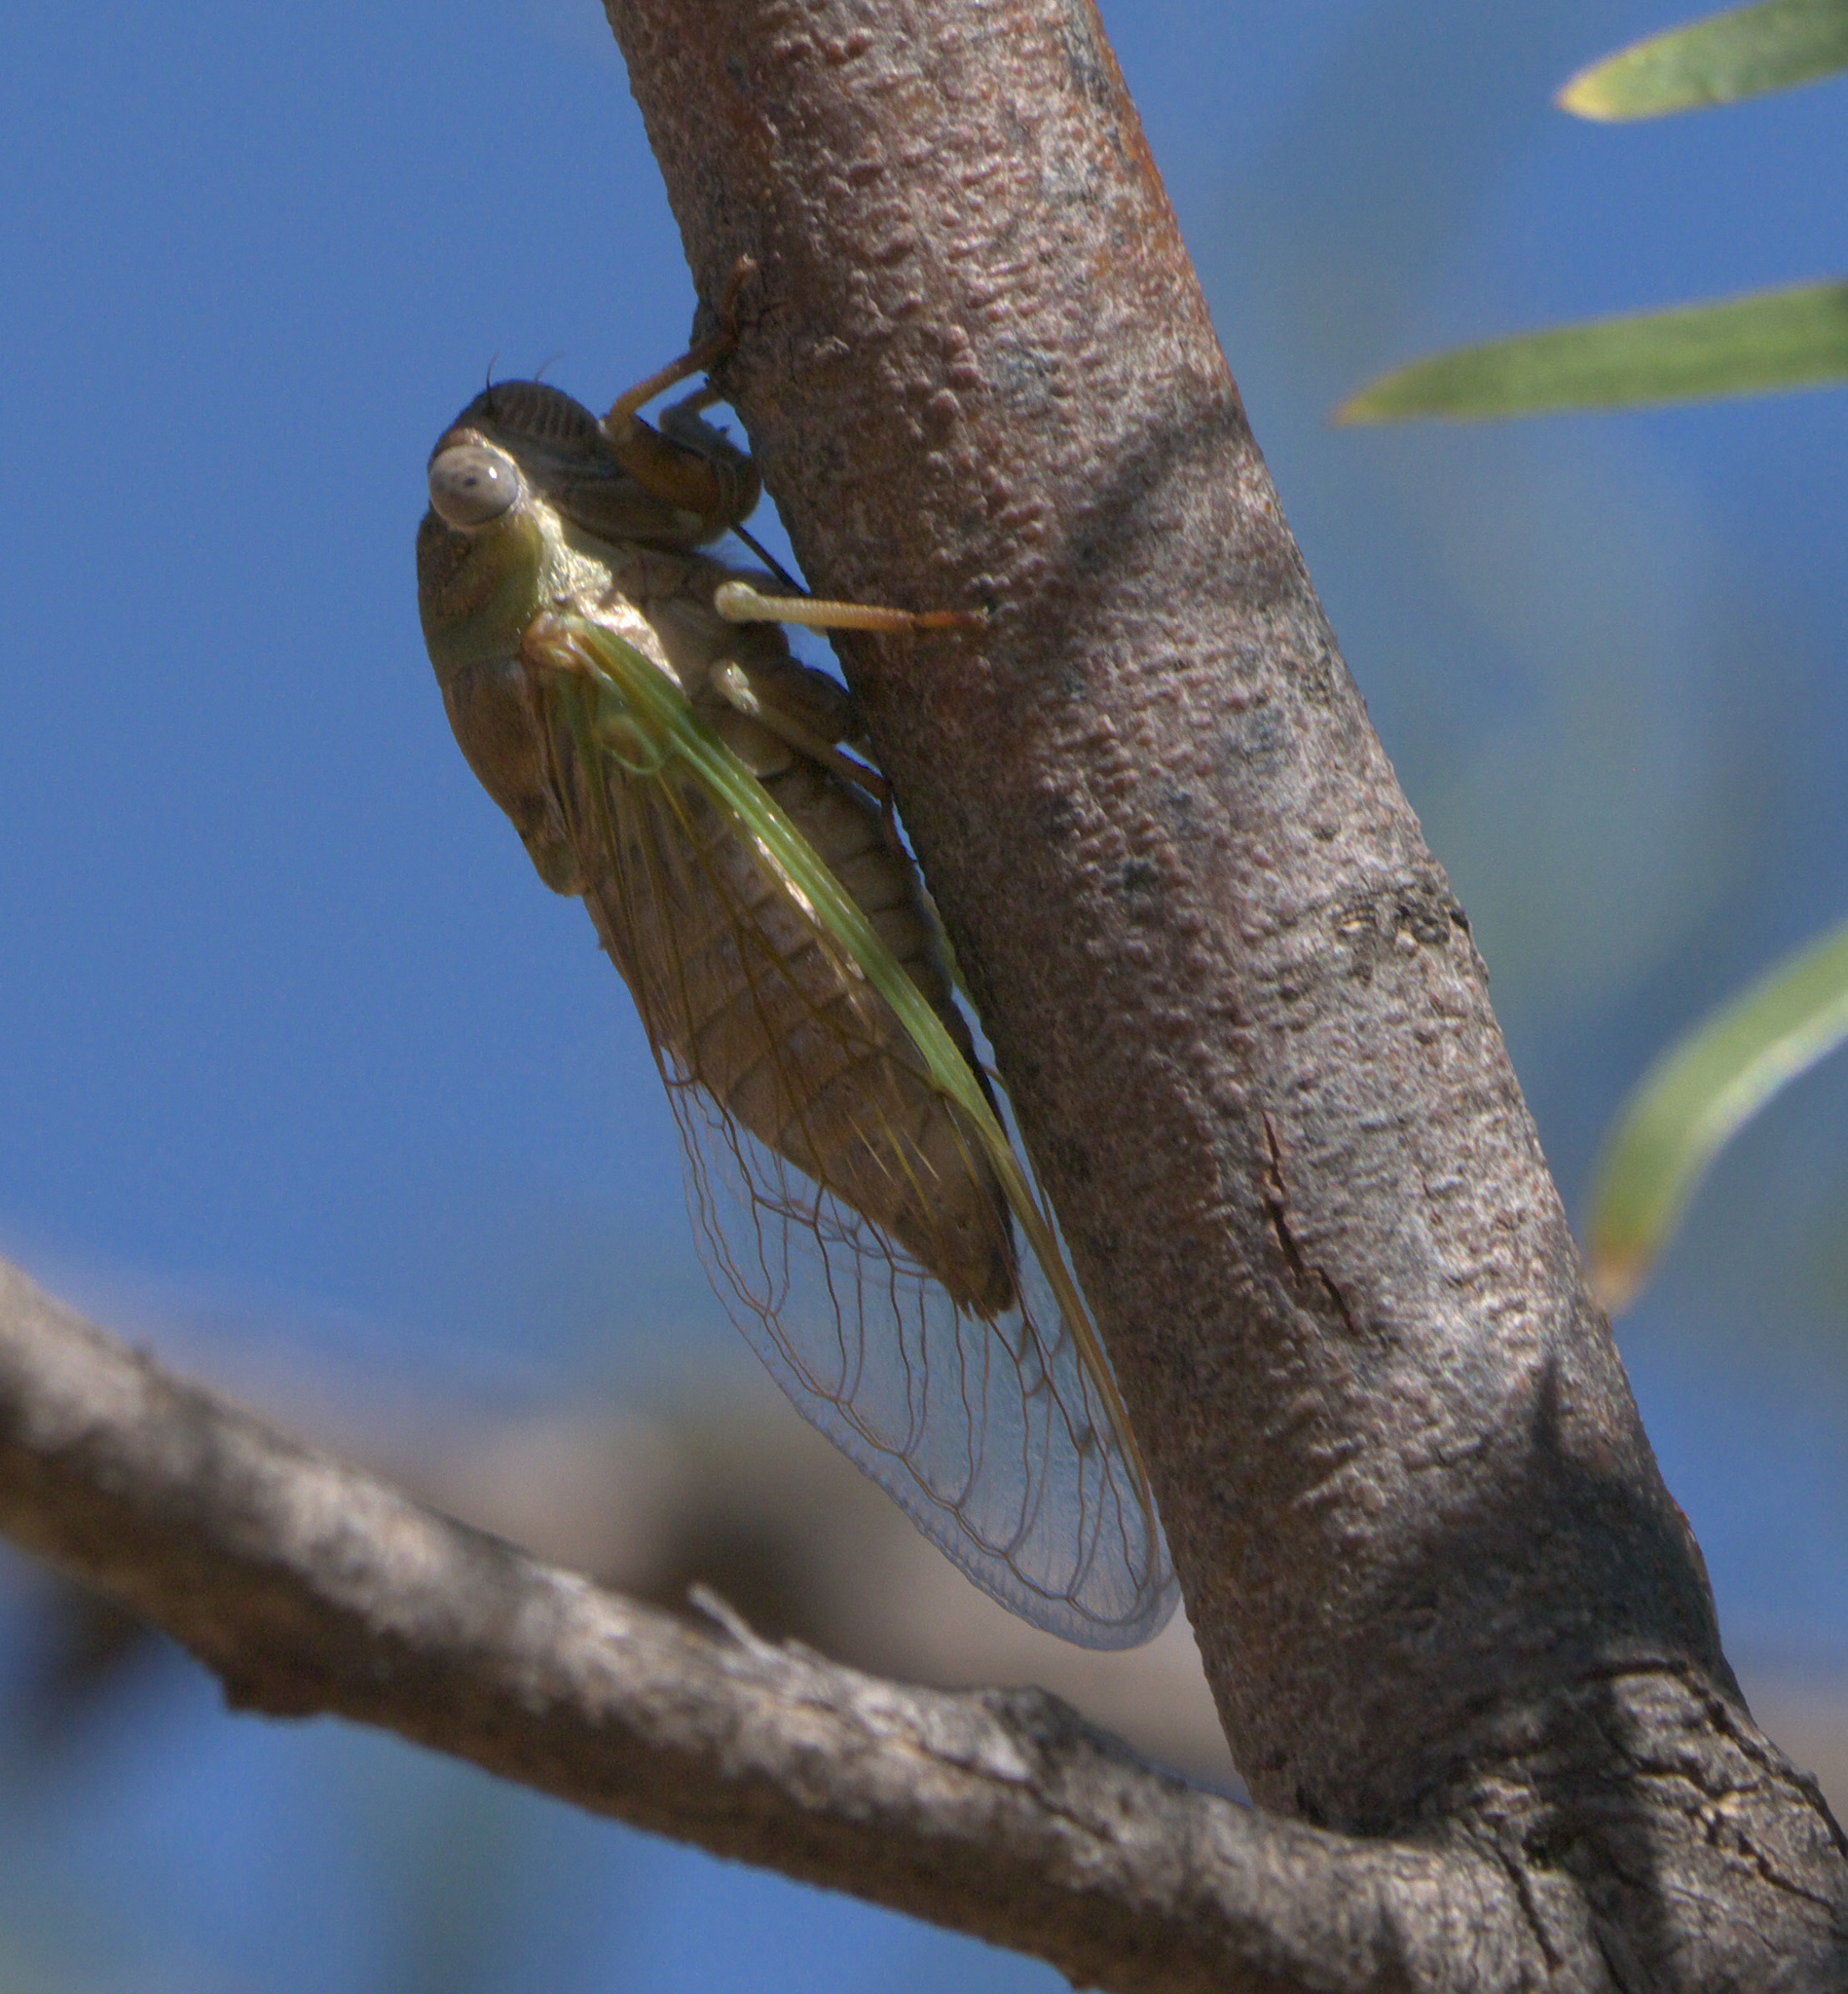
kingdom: Animalia
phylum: Arthropoda
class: Insecta
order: Hemiptera
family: Cicadidae
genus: Neotibicen
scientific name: Neotibicen aurifer
